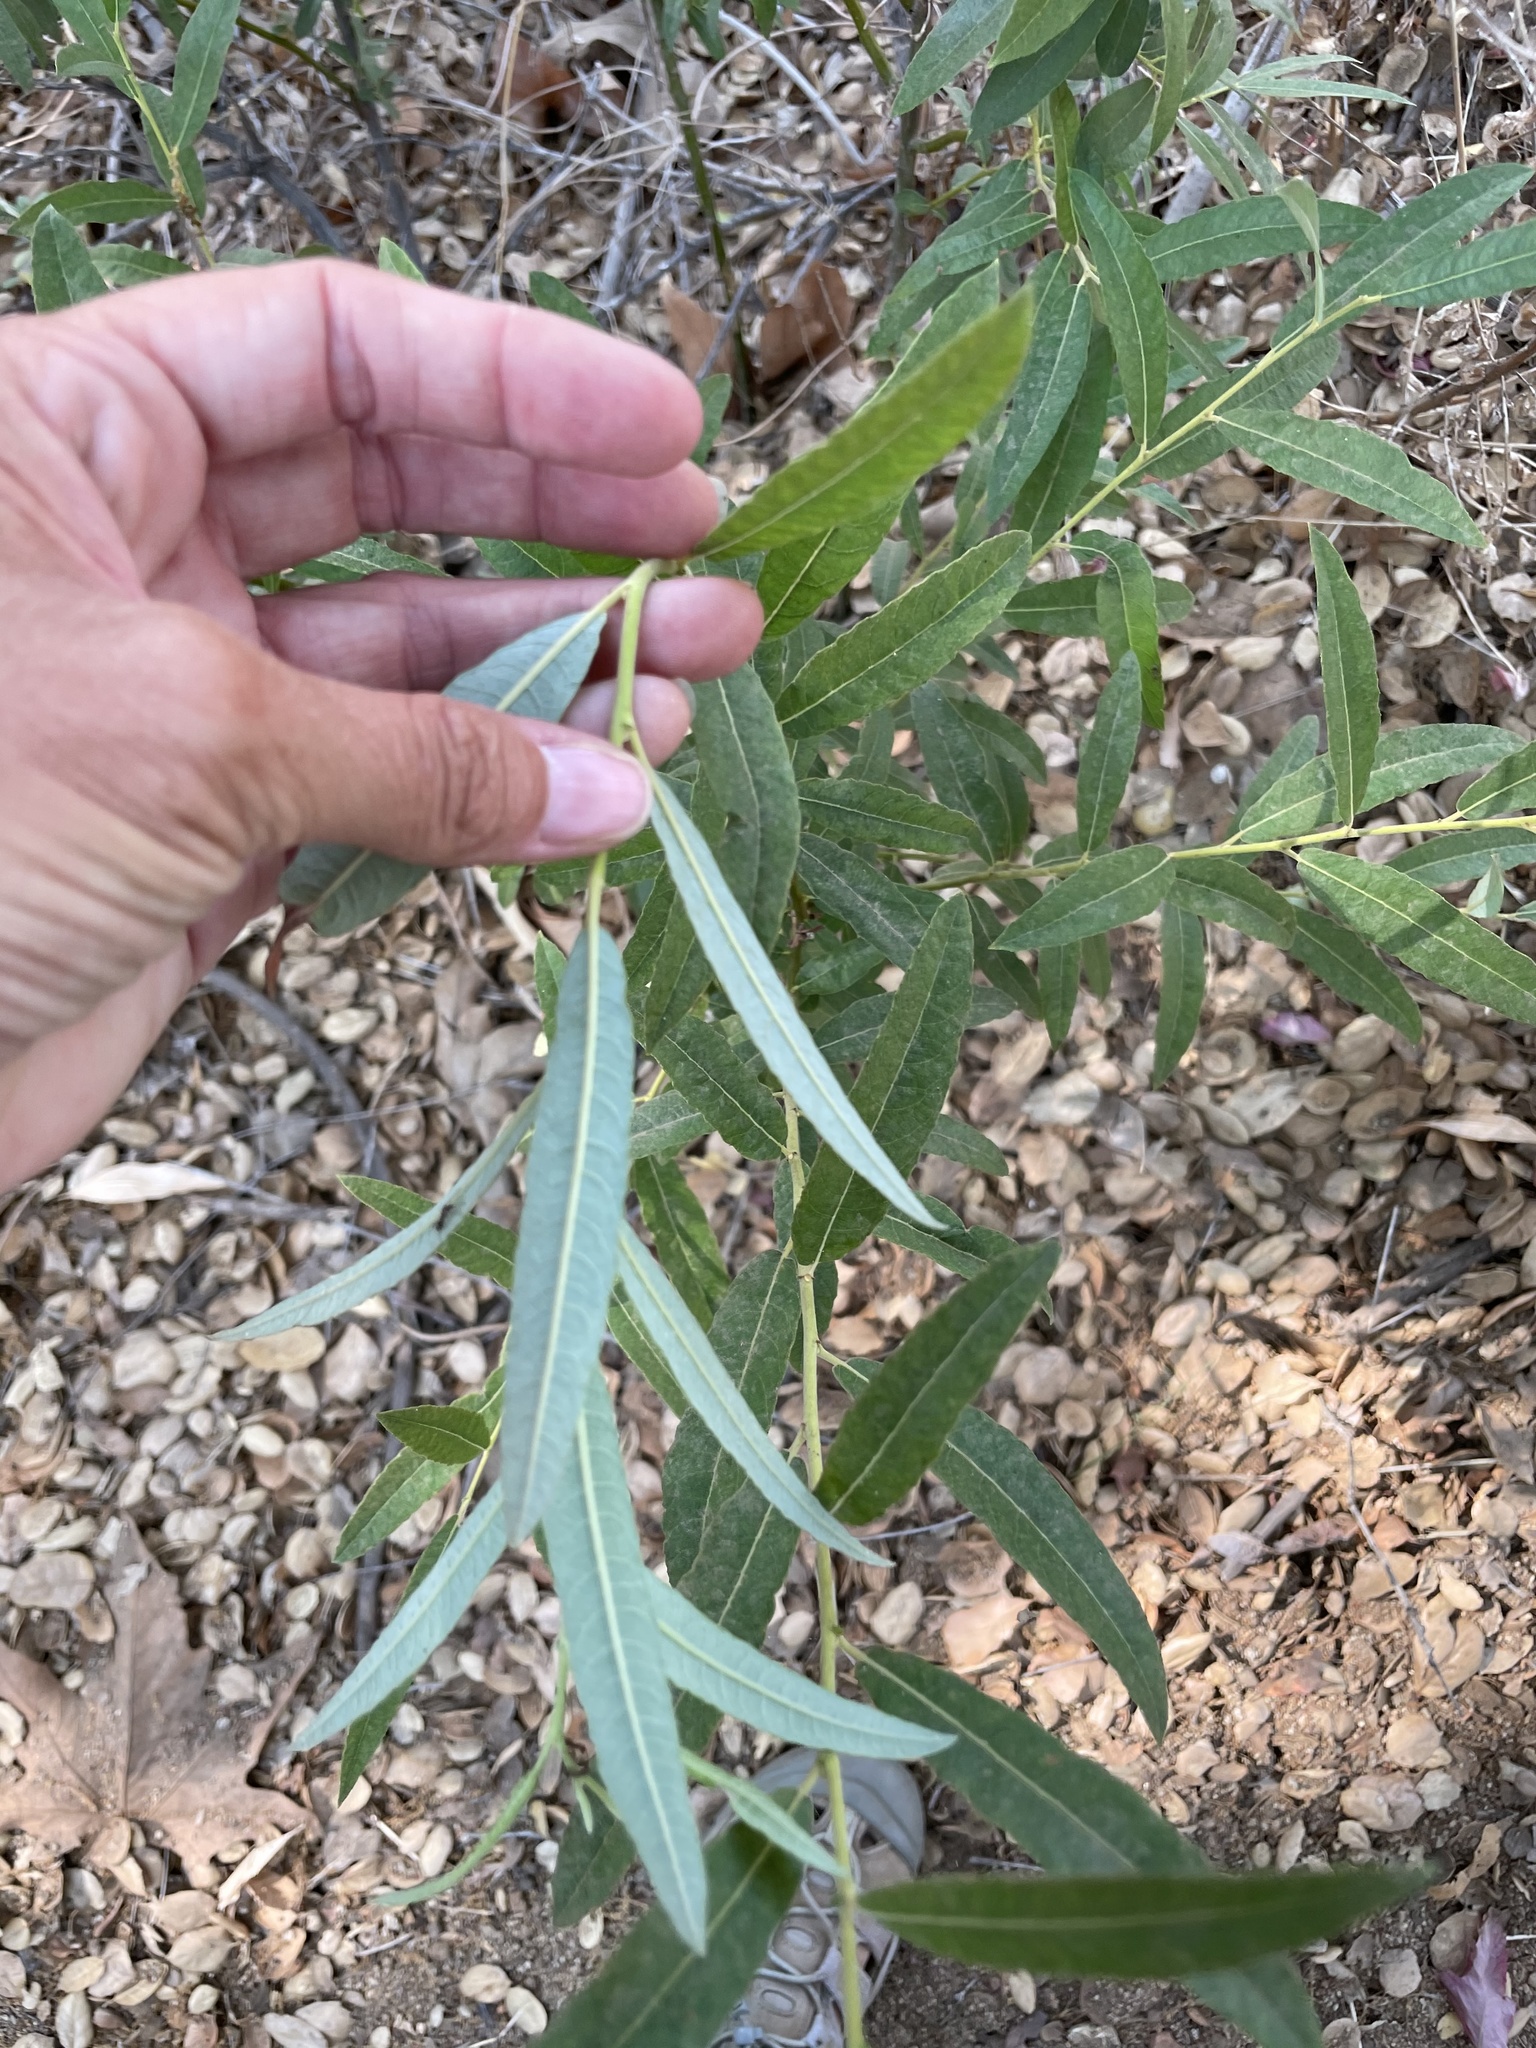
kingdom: Plantae
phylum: Tracheophyta
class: Magnoliopsida
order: Malpighiales
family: Salicaceae
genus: Salix
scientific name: Salix lasiolepis
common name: Arroyo willow
